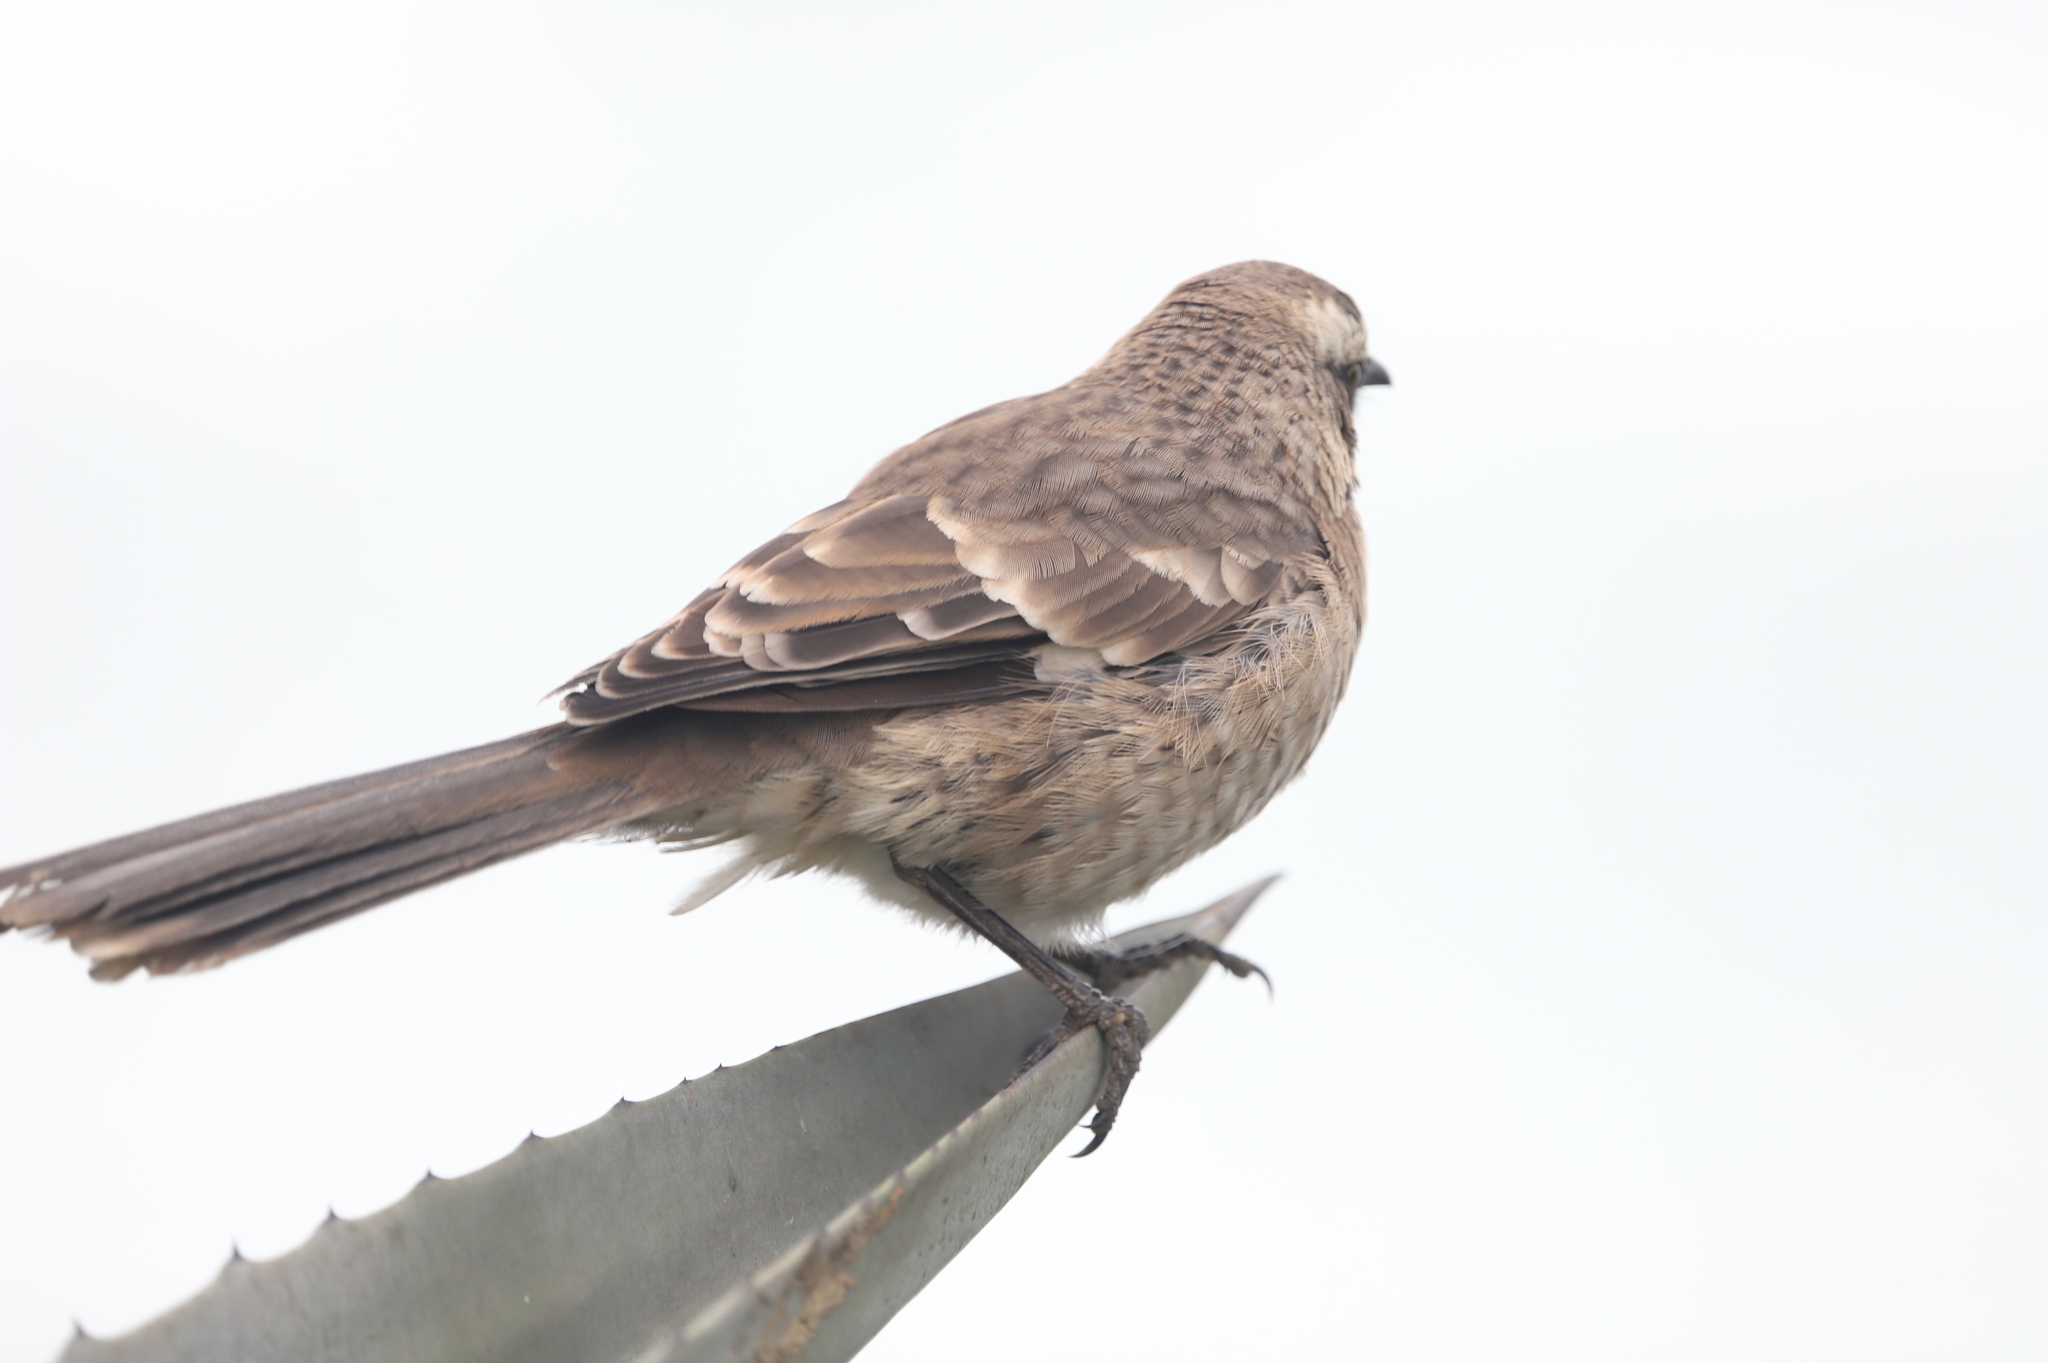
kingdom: Animalia
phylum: Chordata
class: Aves
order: Passeriformes
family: Mimidae
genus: Mimus
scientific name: Mimus longicaudatus
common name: Long-tailed mockingbird
